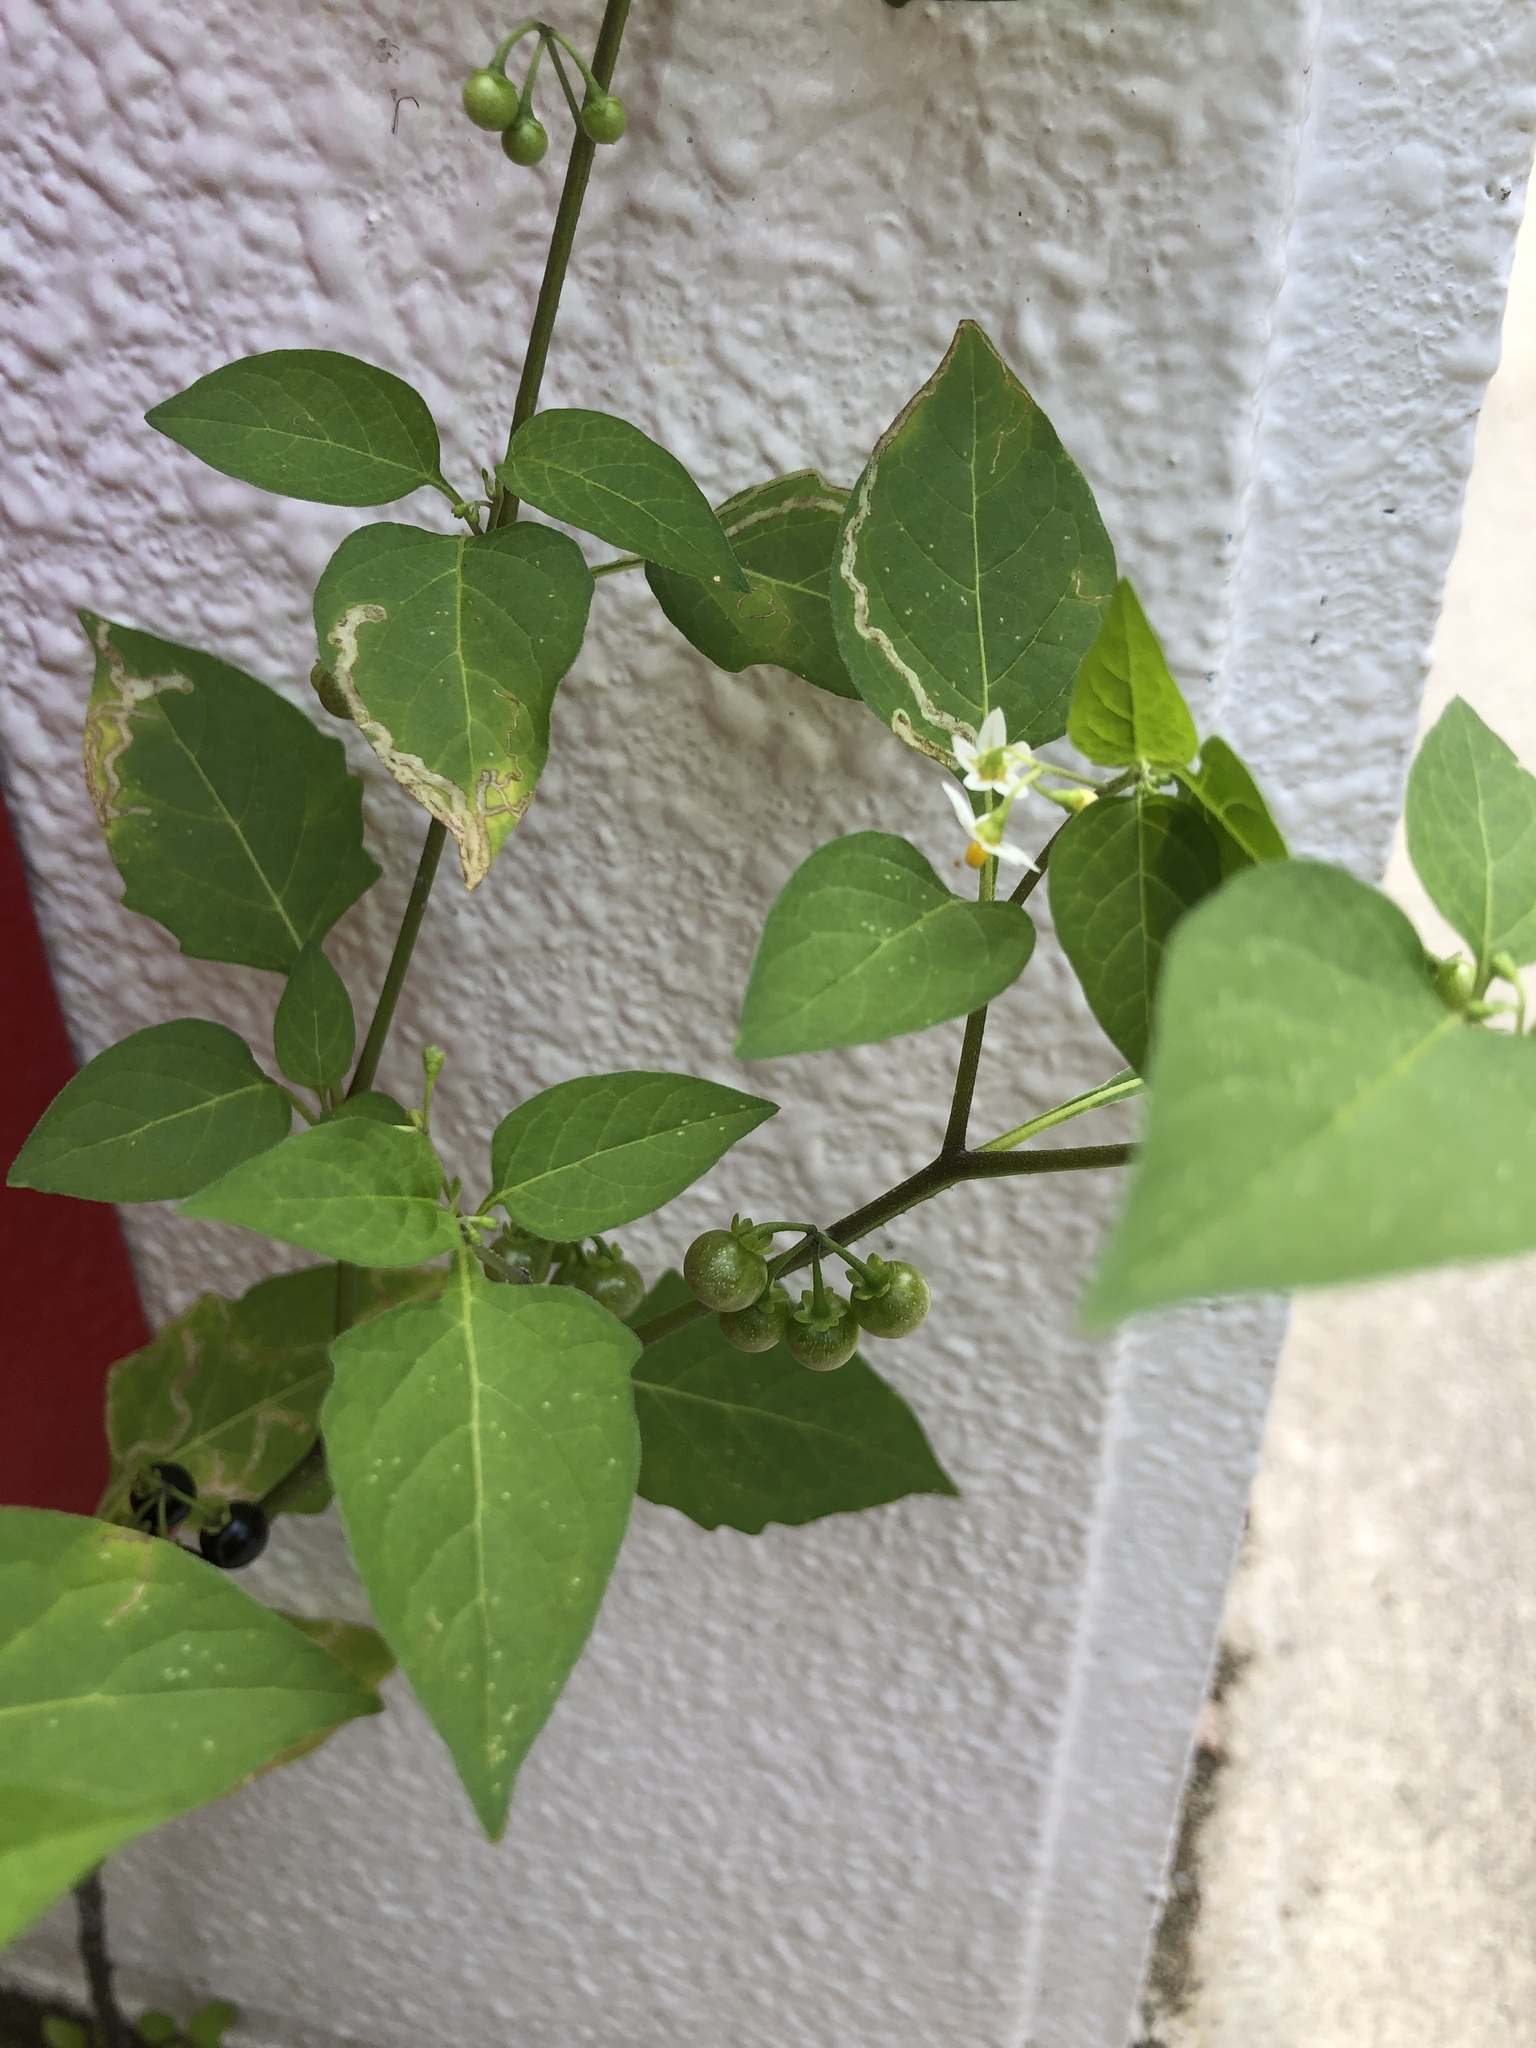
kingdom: Plantae
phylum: Tracheophyta
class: Magnoliopsida
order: Solanales
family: Solanaceae
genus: Solanum
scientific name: Solanum americanum
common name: American black nightshade
